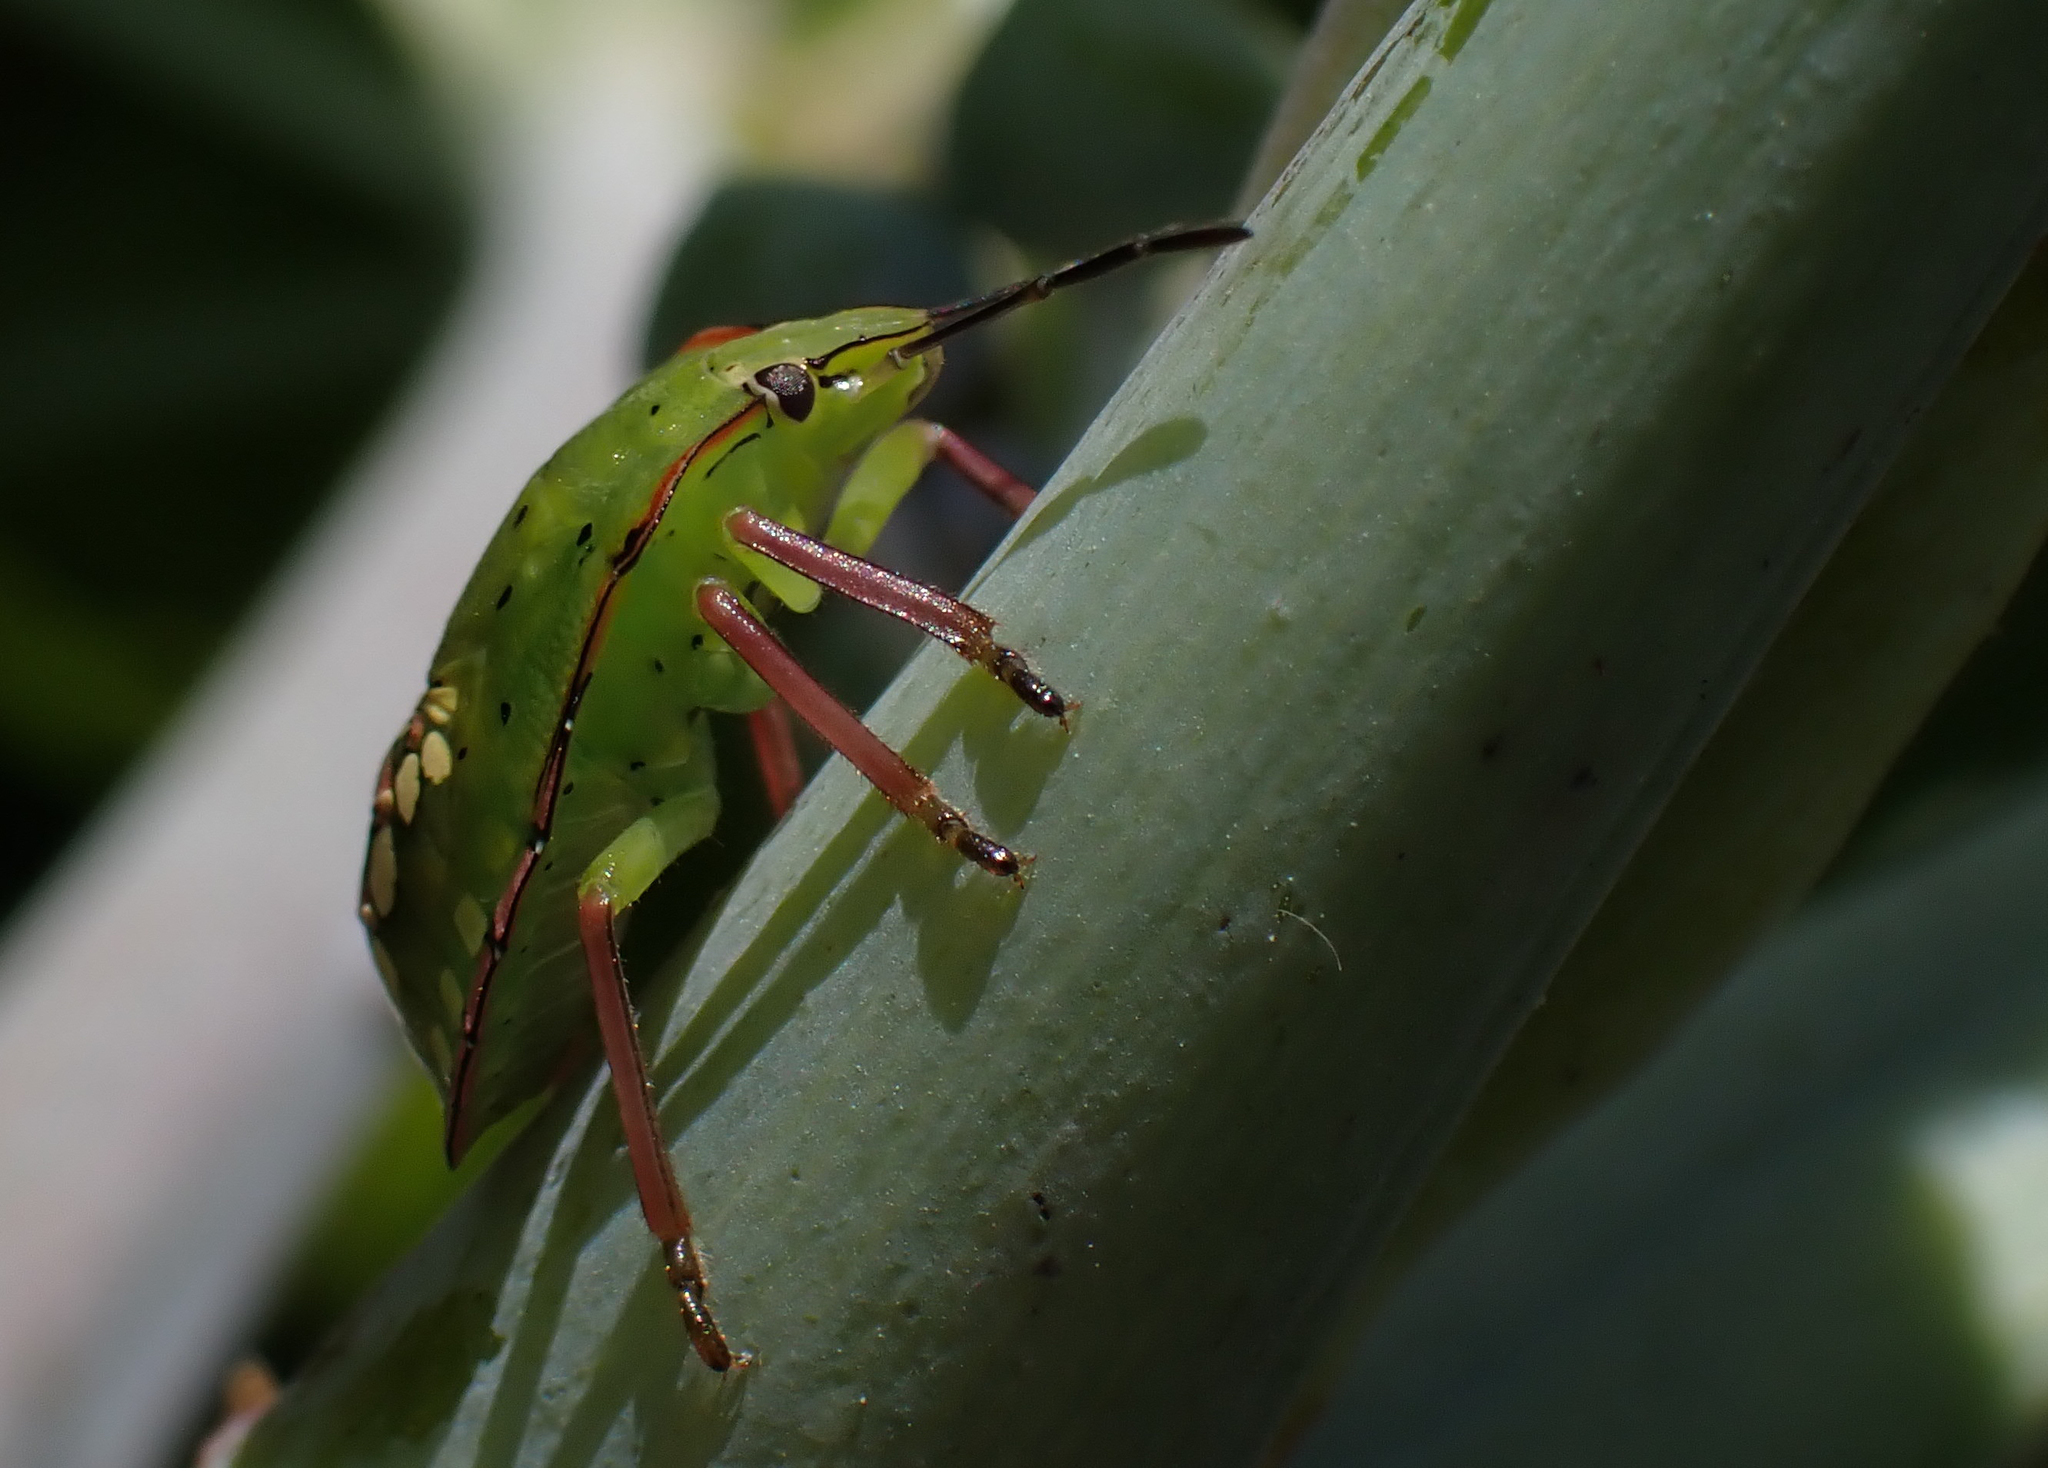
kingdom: Animalia
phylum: Arthropoda
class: Insecta
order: Hemiptera
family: Pentatomidae
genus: Nezara
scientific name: Nezara viridula
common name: Southern green stink bug
